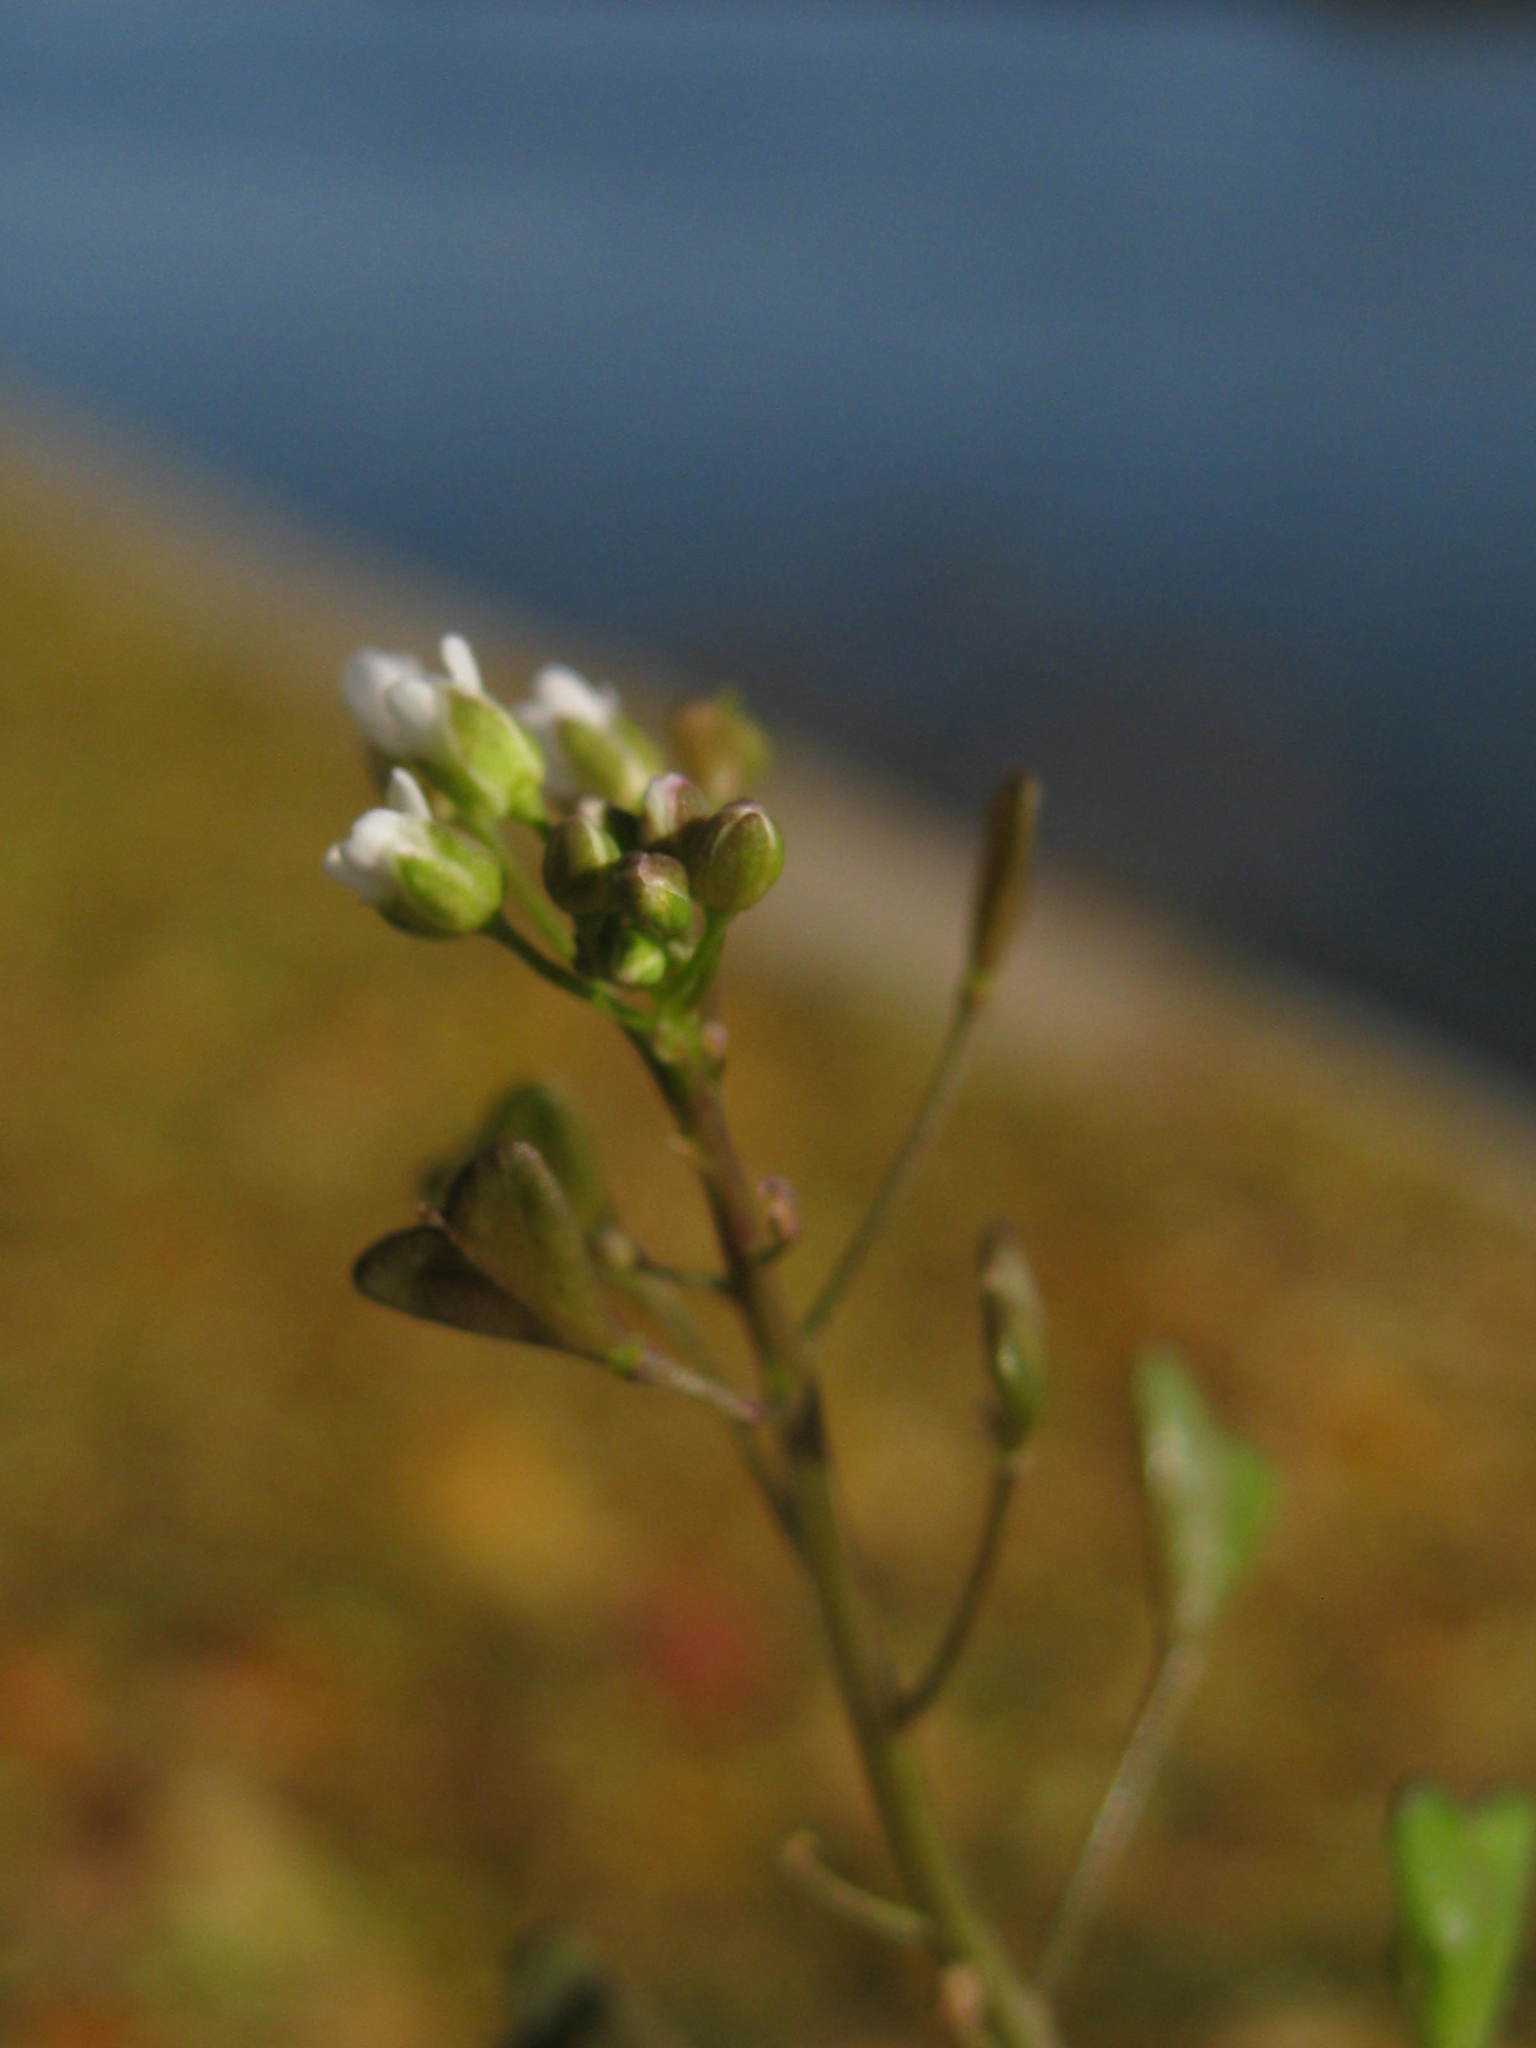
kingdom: Plantae
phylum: Tracheophyta
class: Magnoliopsida
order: Brassicales
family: Brassicaceae
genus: Capsella
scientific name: Capsella bursa-pastoris
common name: Shepherd's purse
